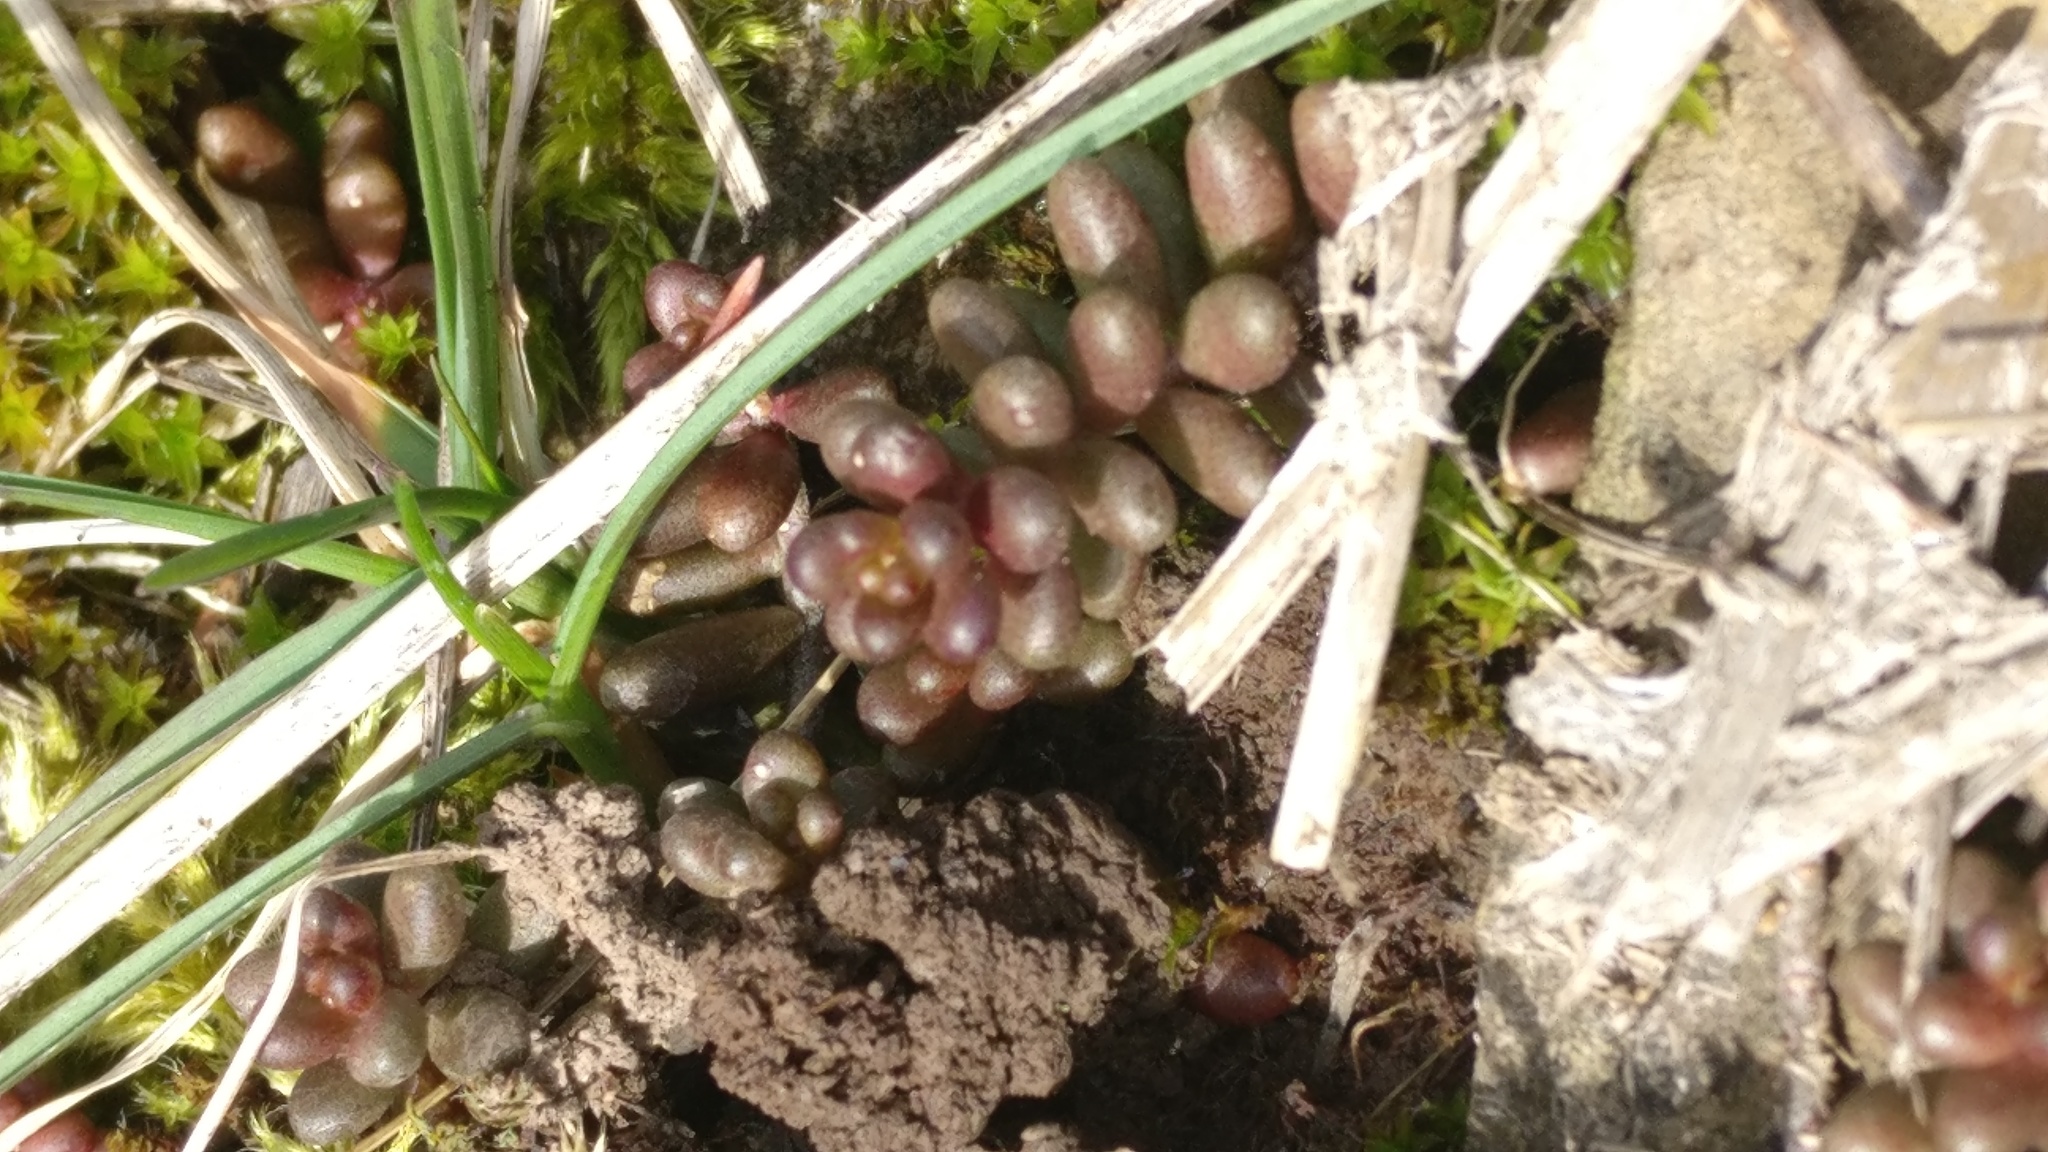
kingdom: Plantae
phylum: Tracheophyta
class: Magnoliopsida
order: Saxifragales
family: Crassulaceae
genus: Sedum
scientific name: Sedum album
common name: White stonecrop
